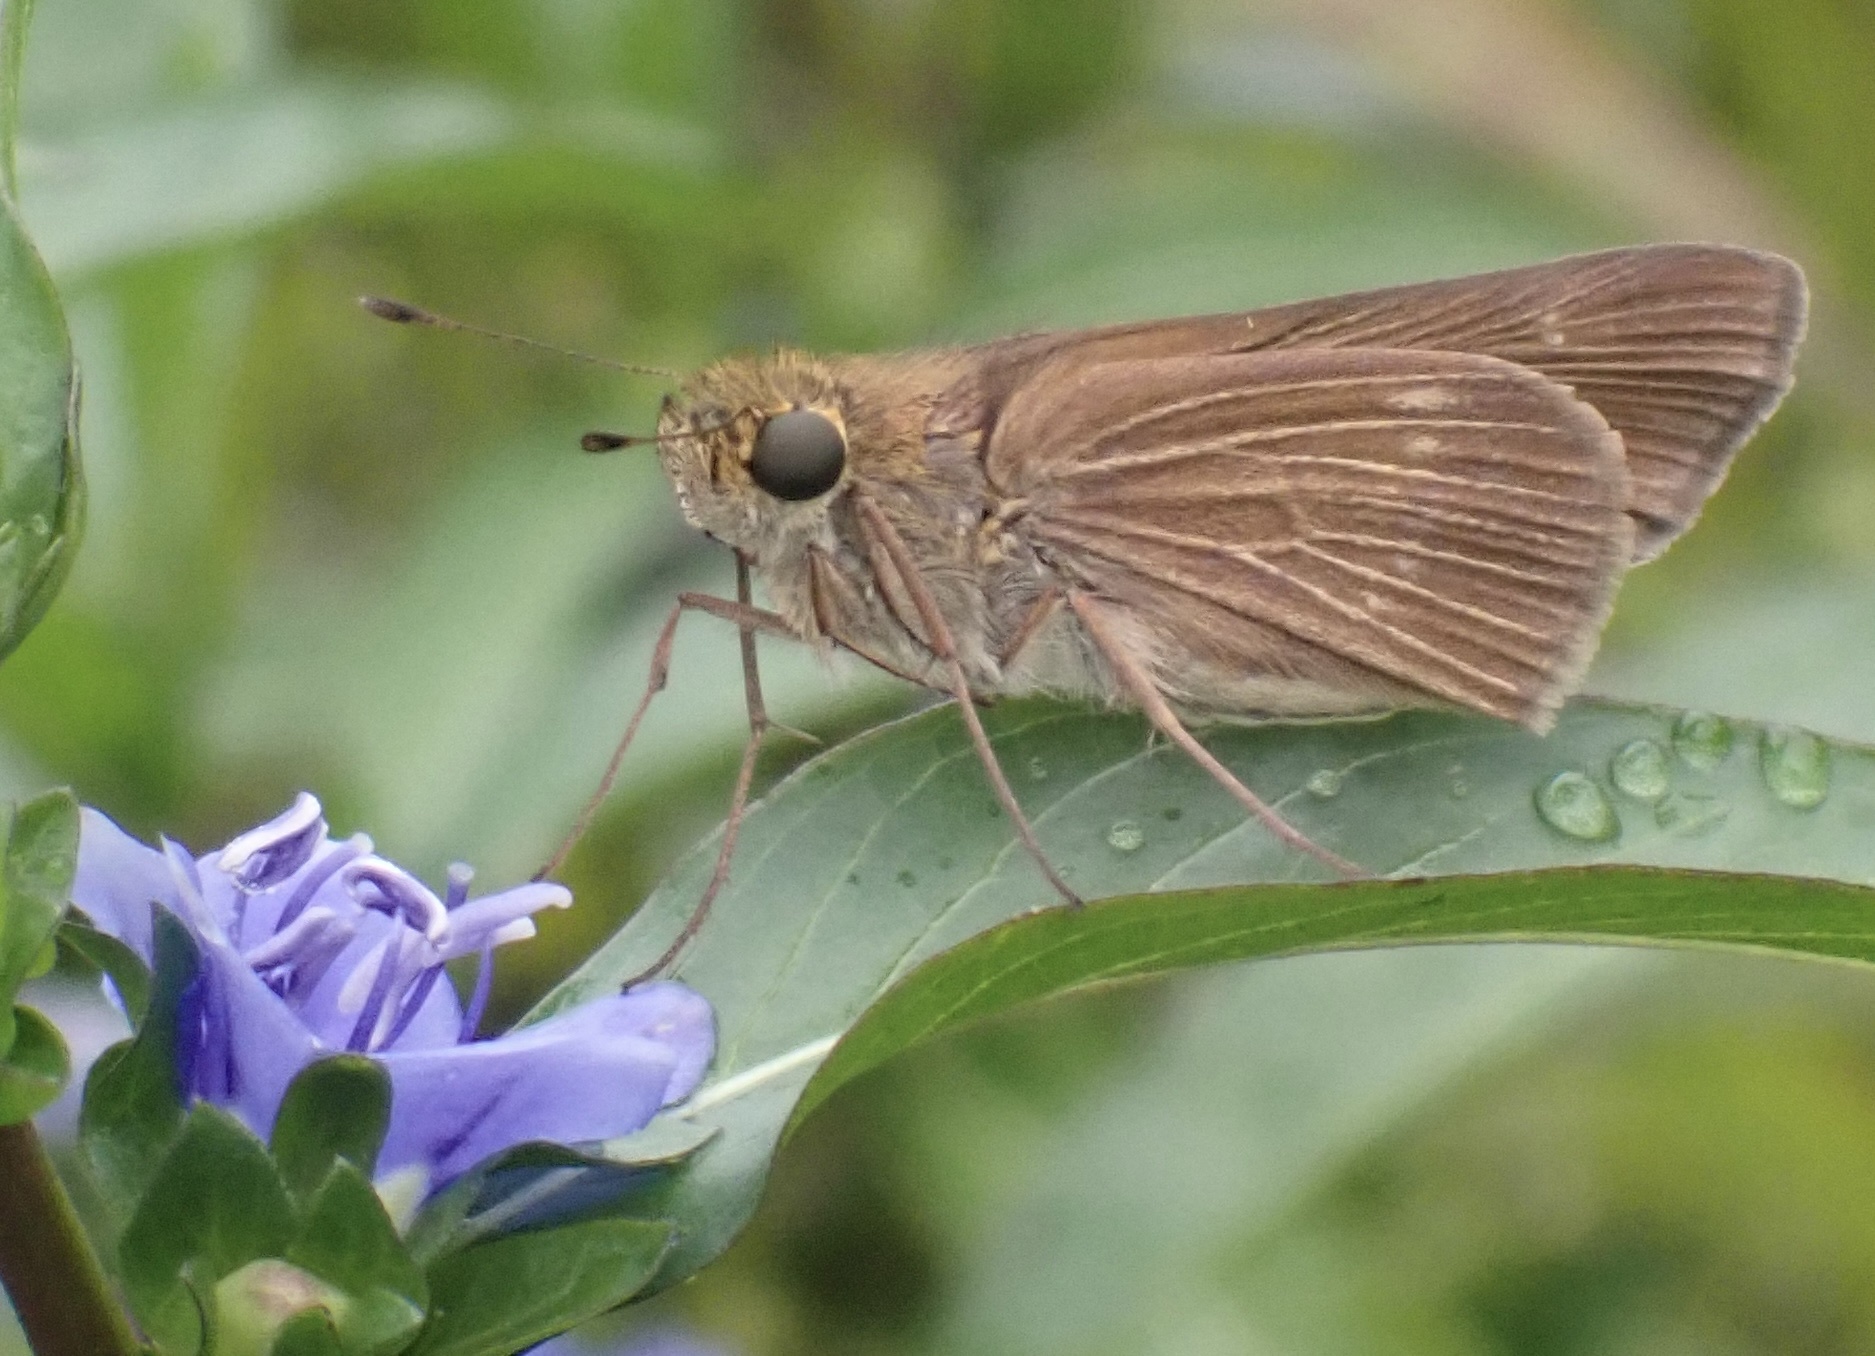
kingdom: Animalia
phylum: Arthropoda
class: Insecta
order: Lepidoptera
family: Hesperiidae
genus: Panoquina
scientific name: Panoquina ocola
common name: Ocola skipper
